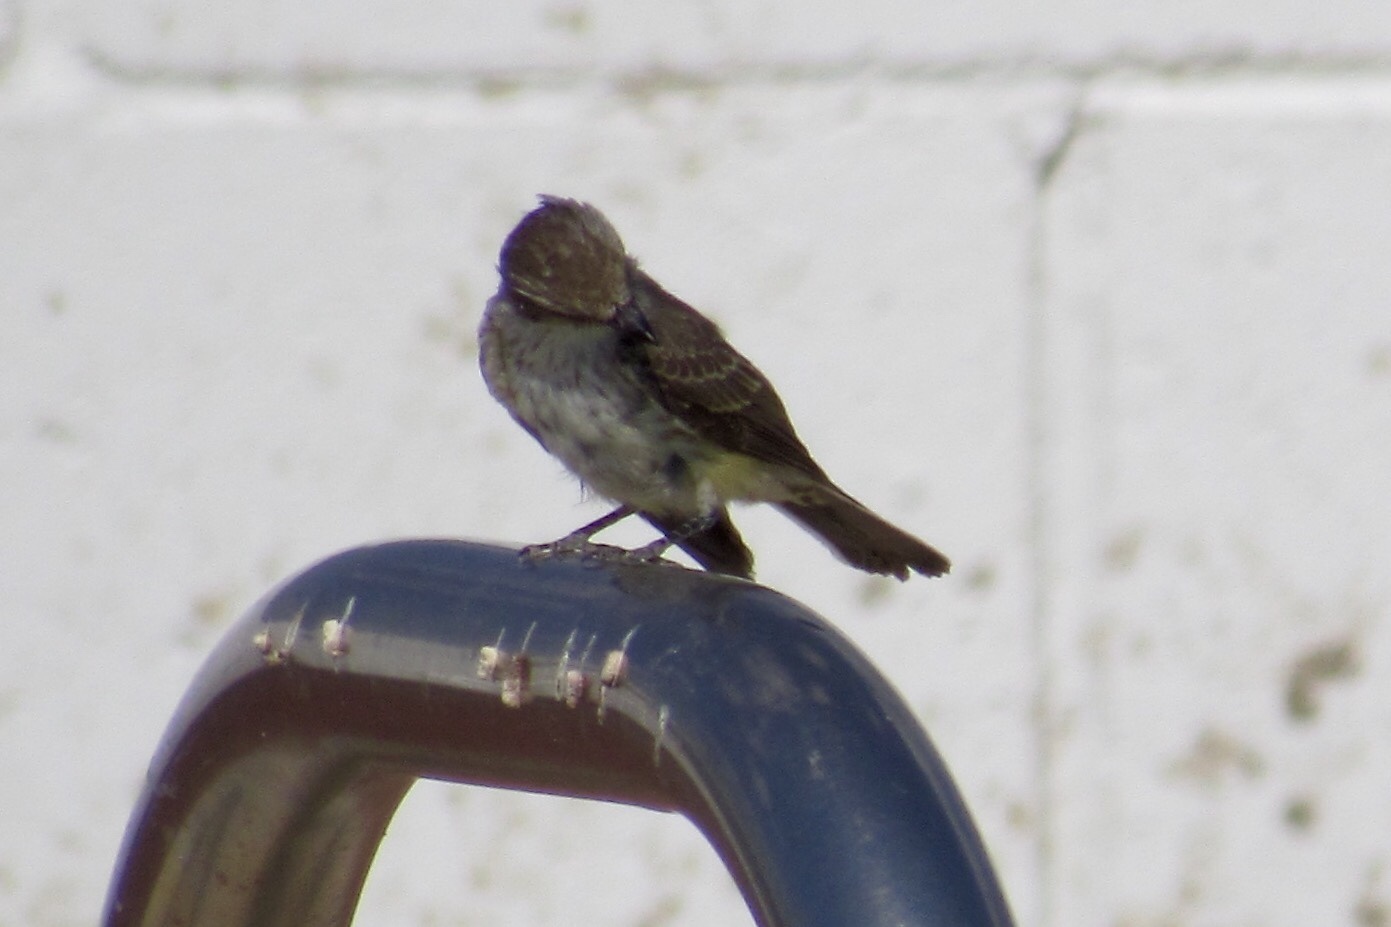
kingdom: Animalia
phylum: Chordata
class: Aves
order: Passeriformes
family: Tyrannidae
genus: Pyrocephalus
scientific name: Pyrocephalus rubinus
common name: Vermilion flycatcher
